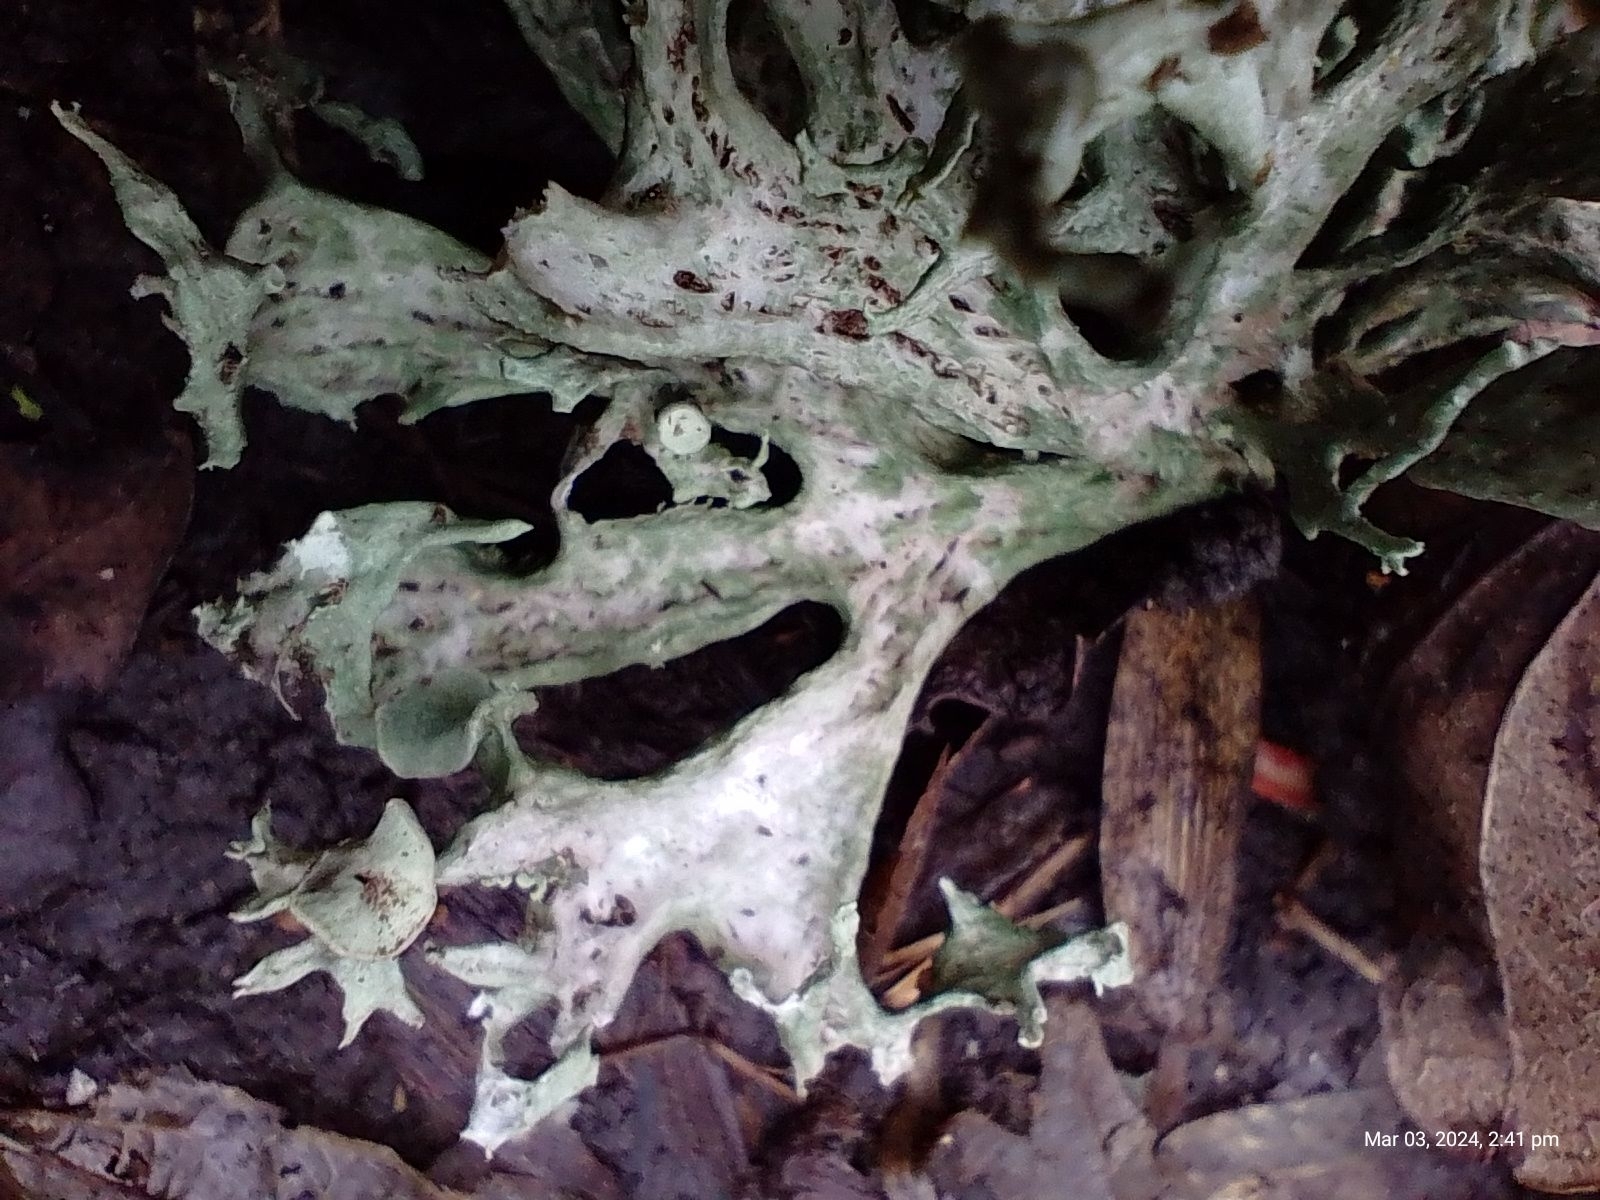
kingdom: Fungi
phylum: Ascomycota
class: Lecanoromycetes
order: Lecanorales
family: Ramalinaceae
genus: Ramalina
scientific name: Ramalina fastigiata
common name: Dotted ribbon lichen
